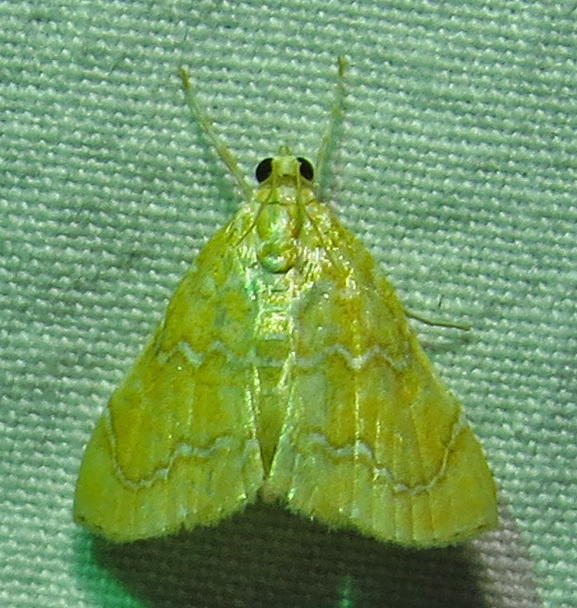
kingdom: Animalia
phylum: Arthropoda
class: Insecta
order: Lepidoptera
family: Crambidae
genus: Glaphyria
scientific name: Glaphyria sesquistrialis
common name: White-roped glaphyria
